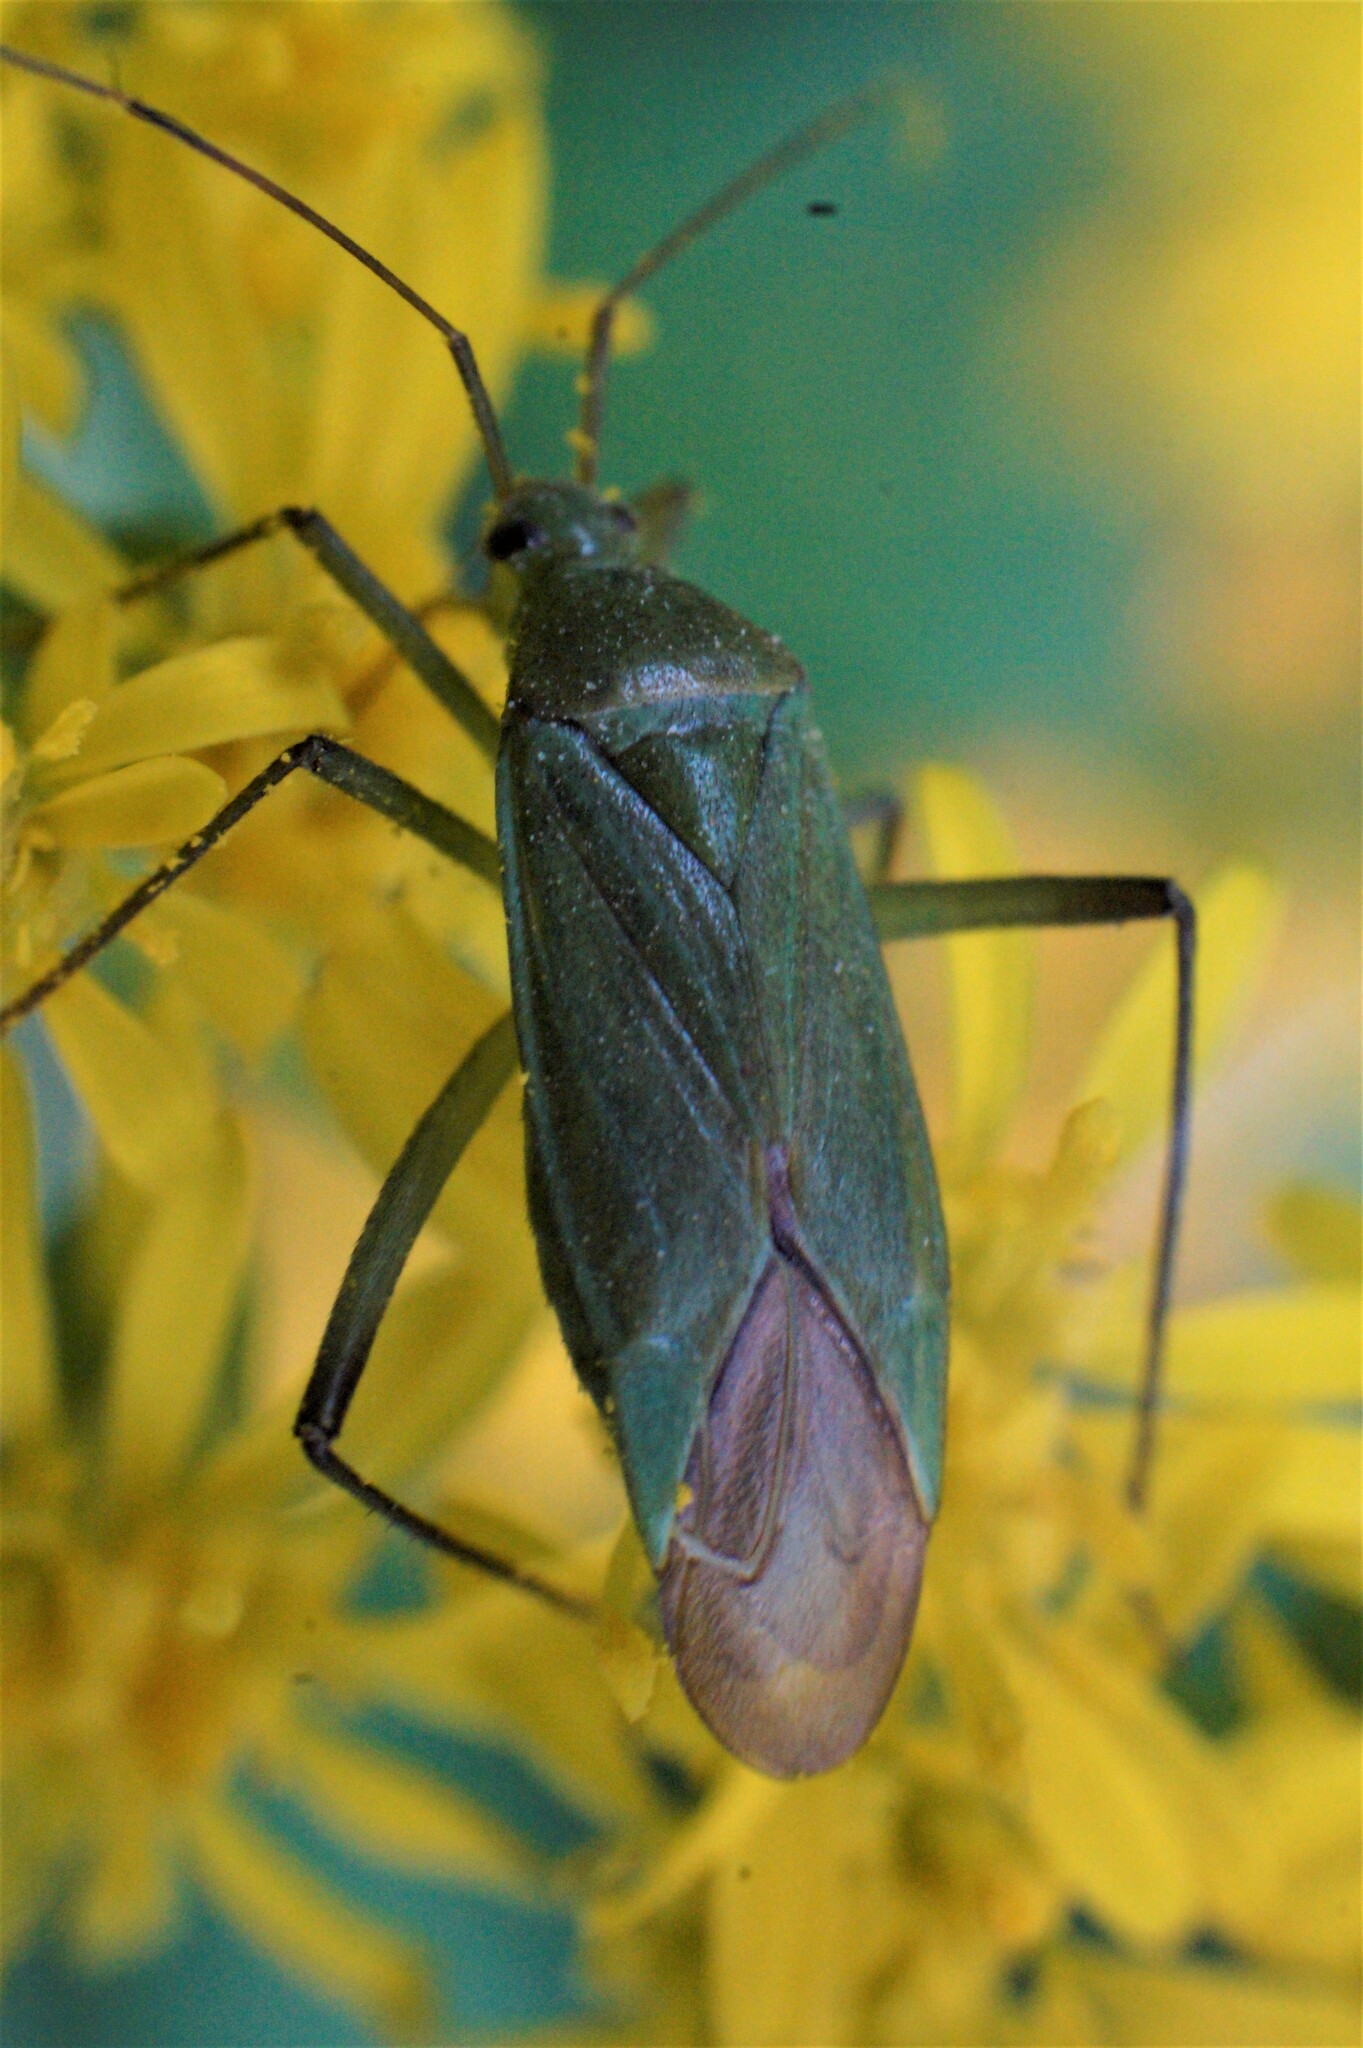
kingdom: Animalia
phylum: Arthropoda
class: Insecta
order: Hemiptera
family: Miridae
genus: Calocoris
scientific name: Calocoris affinis
